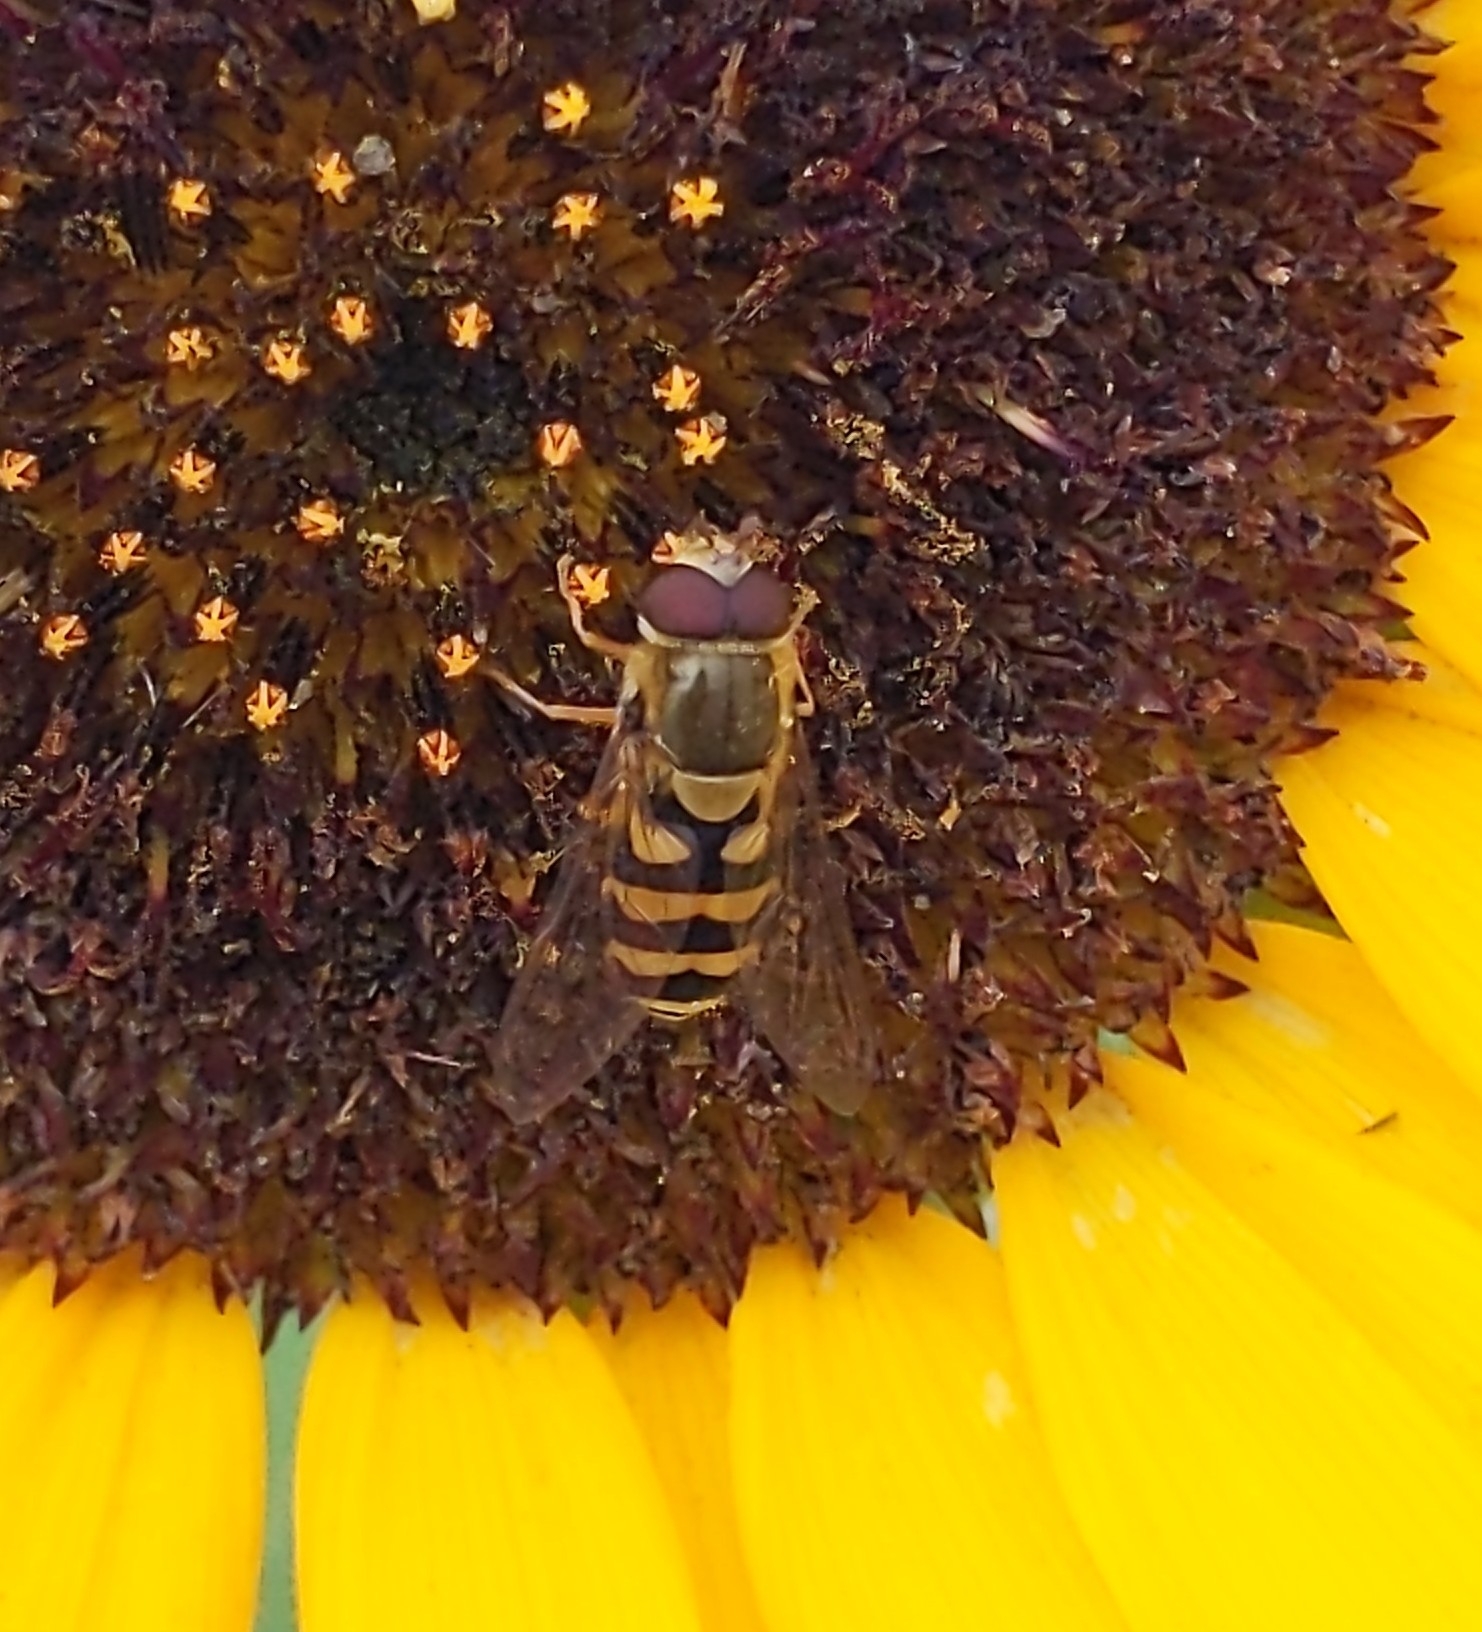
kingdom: Animalia
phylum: Arthropoda
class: Insecta
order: Diptera
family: Syrphidae
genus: Syrphus
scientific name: Syrphus
